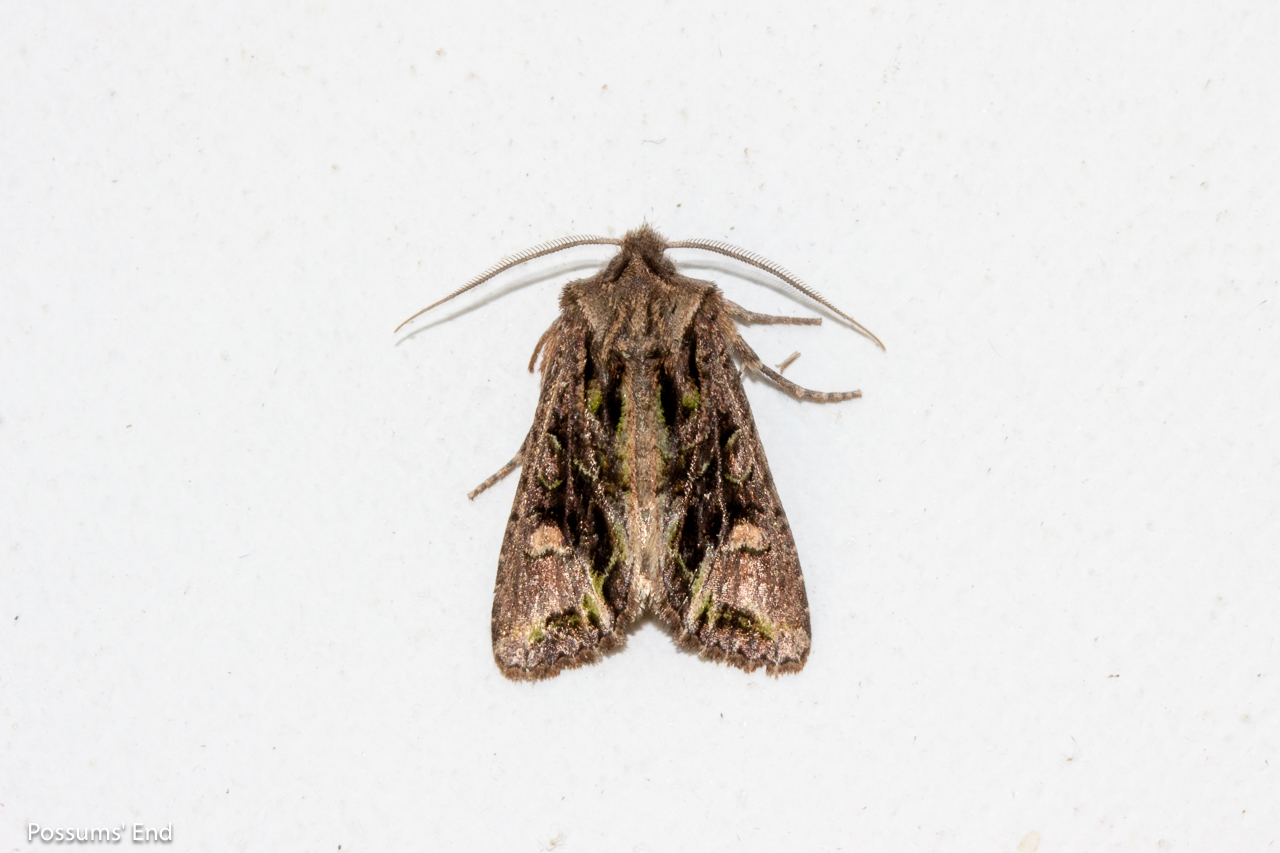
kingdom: Animalia
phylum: Arthropoda
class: Insecta
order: Lepidoptera
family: Noctuidae
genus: Ichneutica
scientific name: Ichneutica insignis
